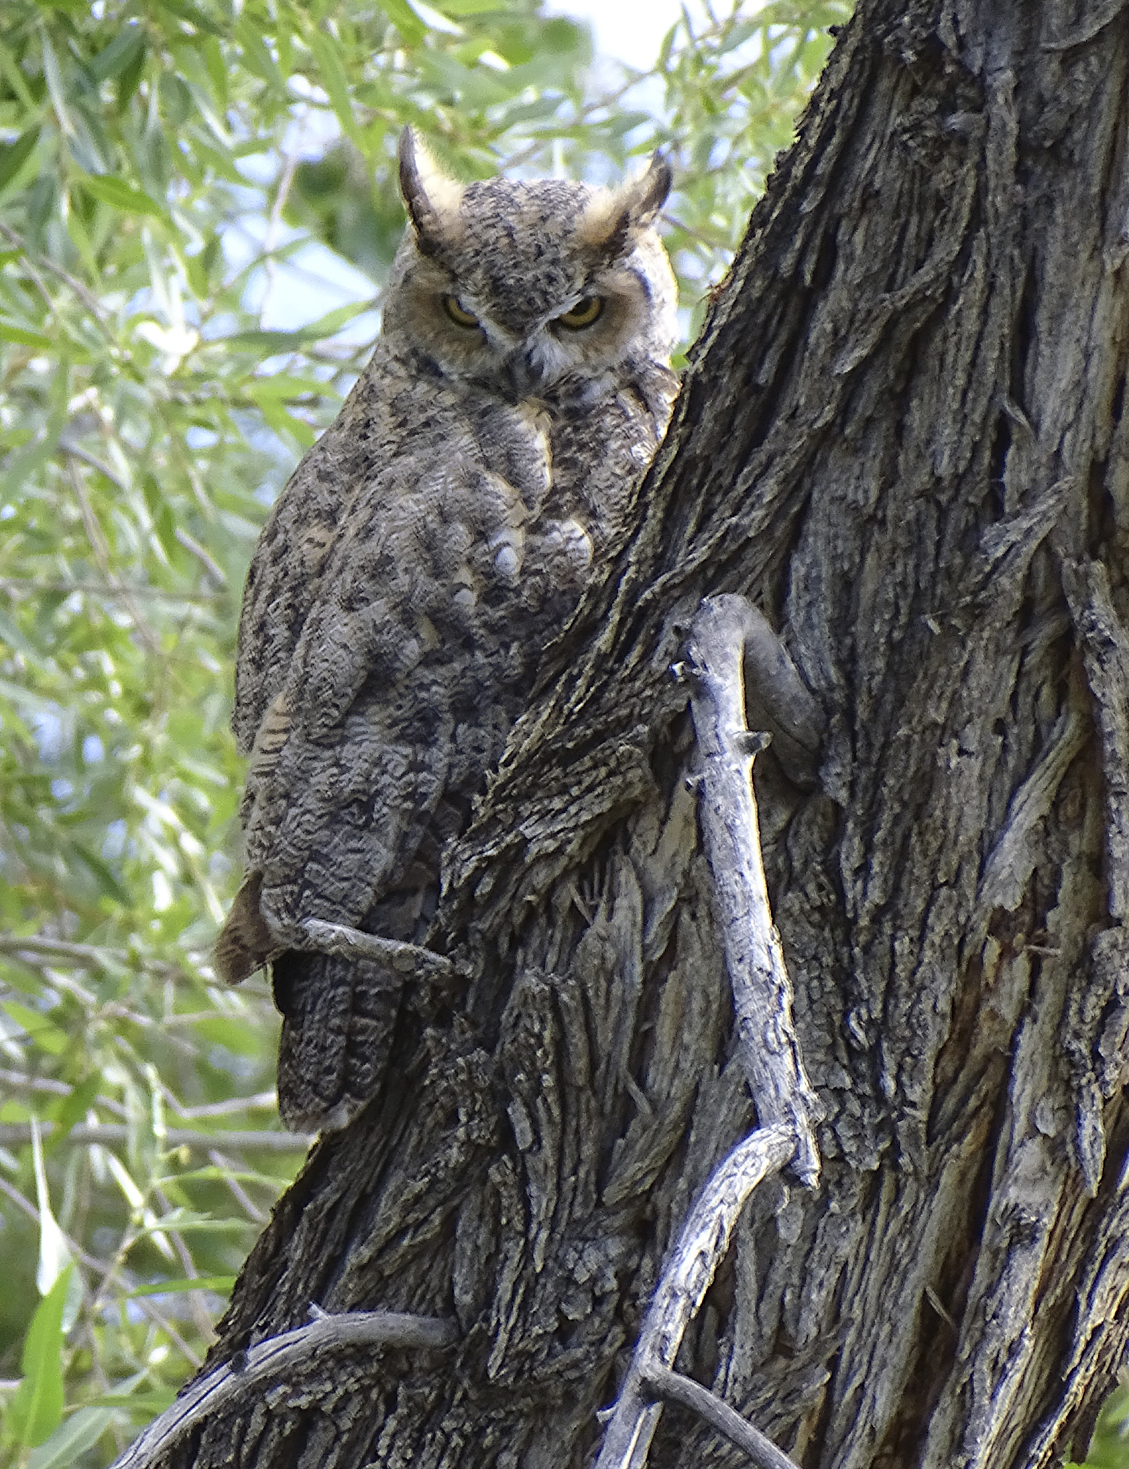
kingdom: Animalia
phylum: Chordata
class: Aves
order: Strigiformes
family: Strigidae
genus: Bubo
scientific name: Bubo virginianus
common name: Great horned owl
